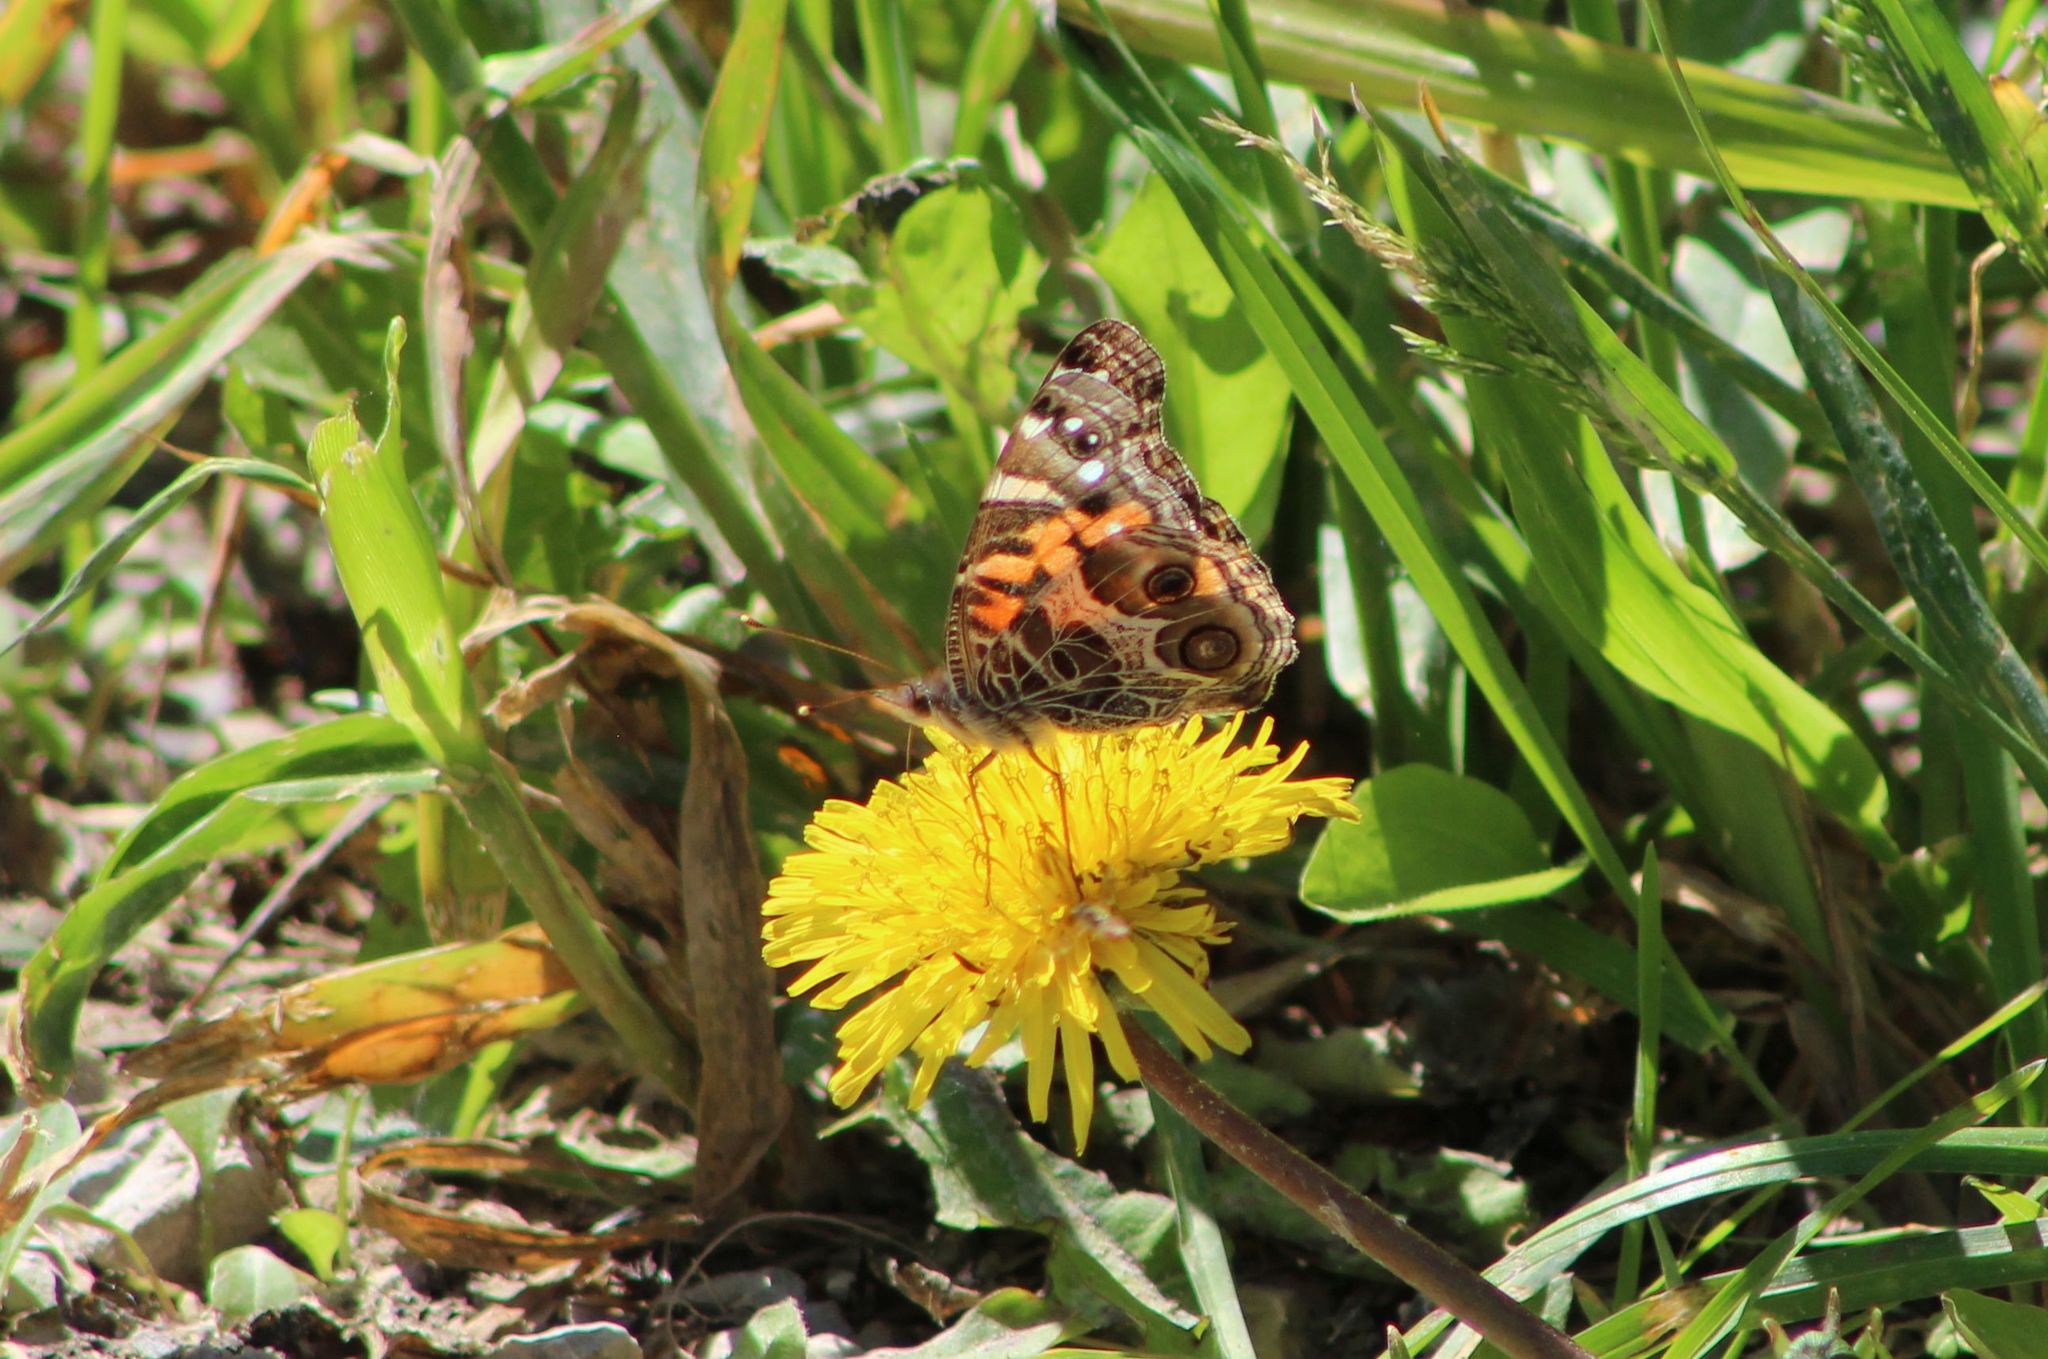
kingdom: Animalia
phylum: Arthropoda
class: Insecta
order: Lepidoptera
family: Nymphalidae
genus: Vanessa
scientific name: Vanessa virginiensis
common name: American lady
